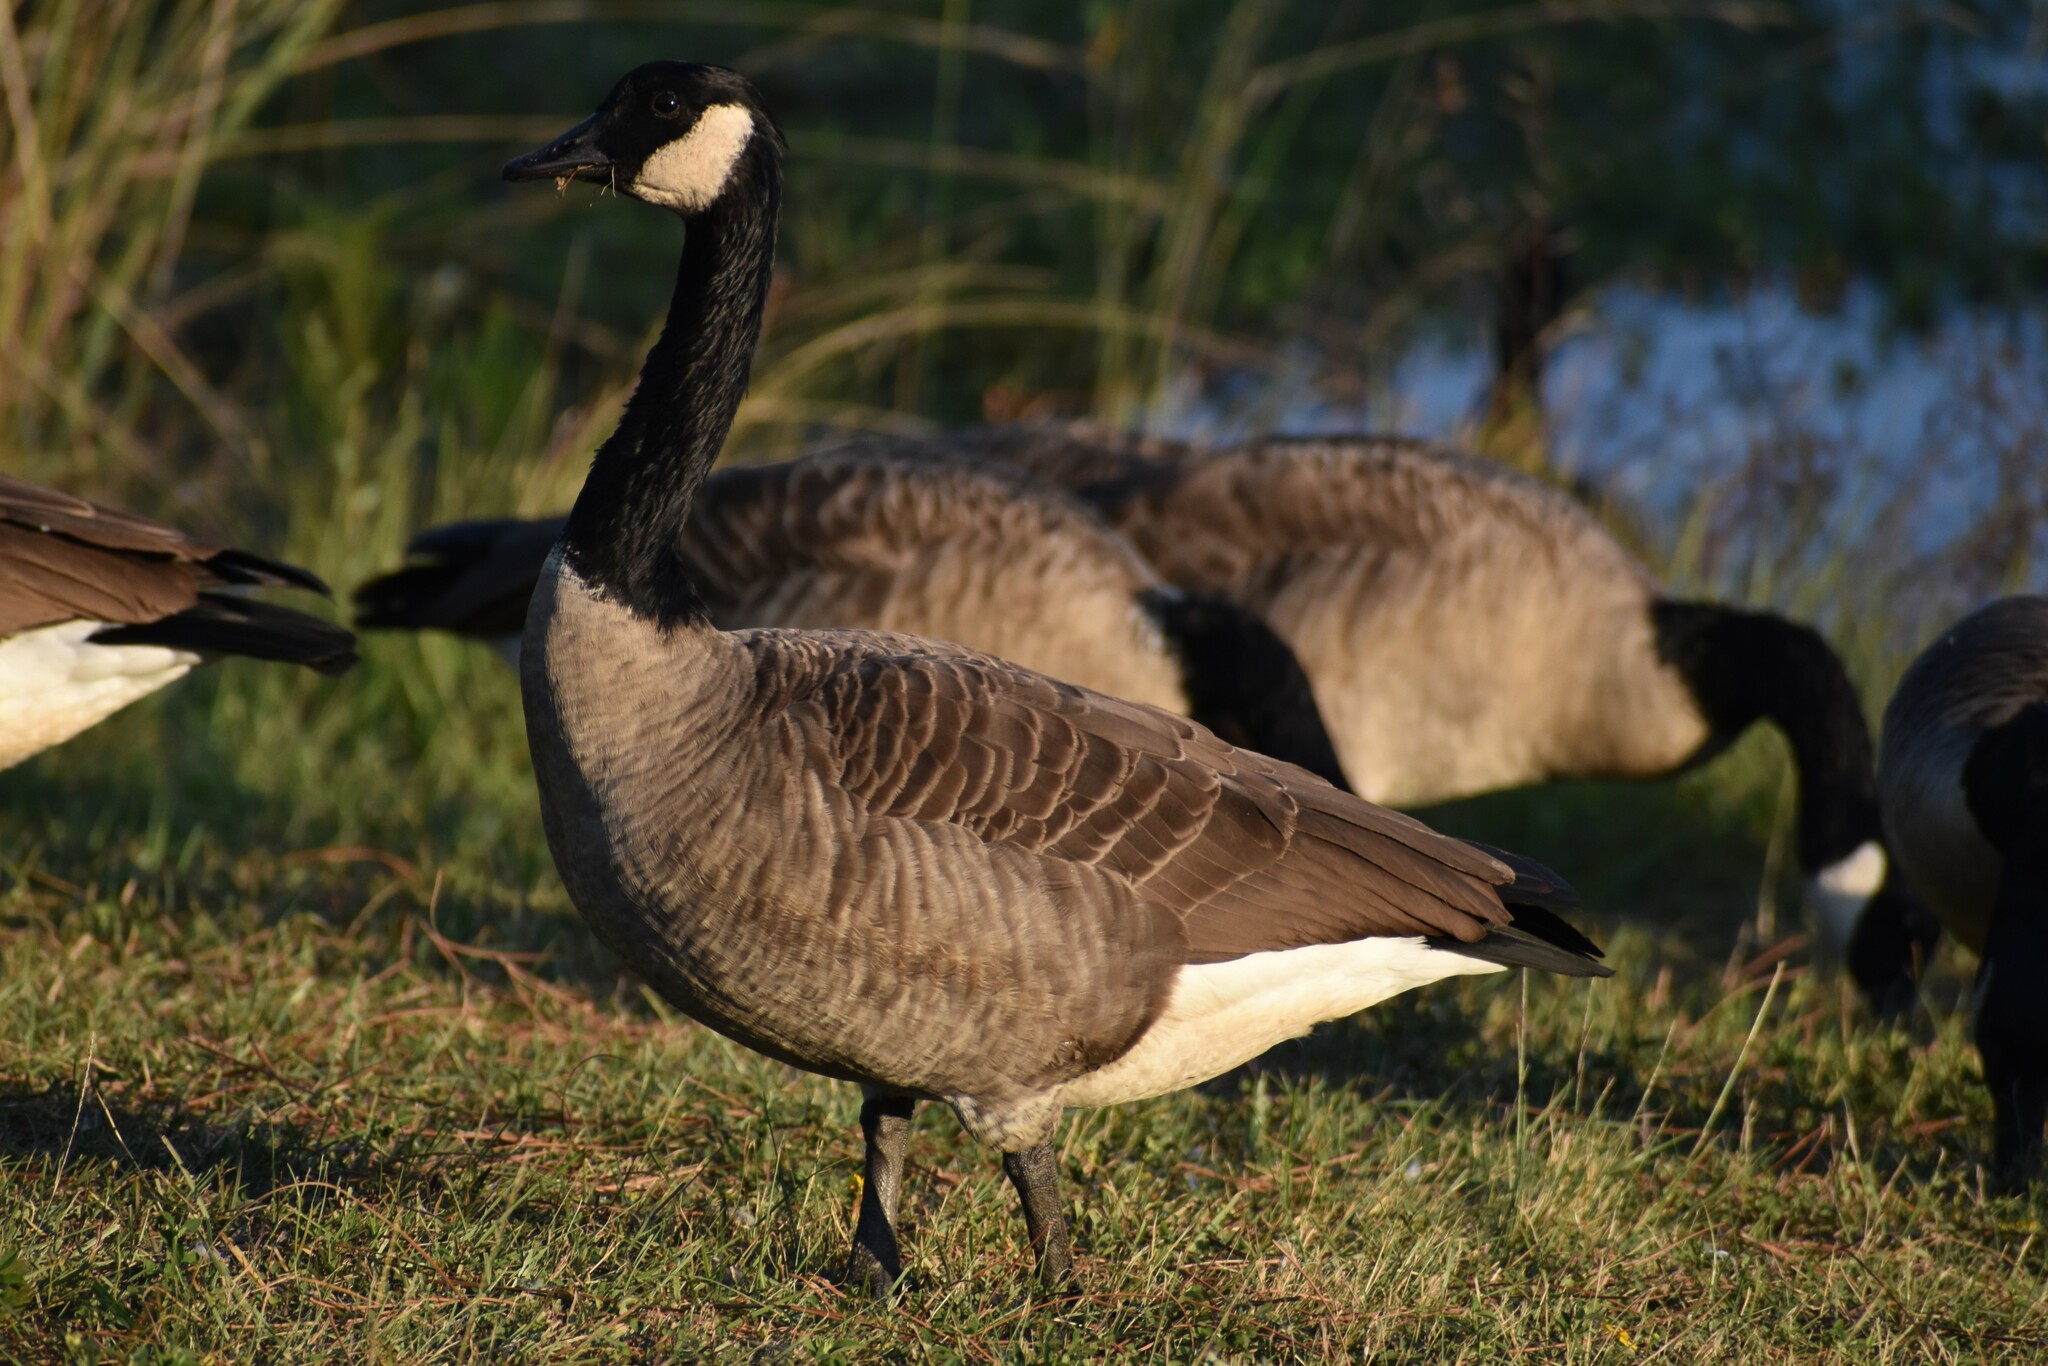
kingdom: Animalia
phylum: Chordata
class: Aves
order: Anseriformes
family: Anatidae
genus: Branta
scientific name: Branta canadensis
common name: Canada goose
